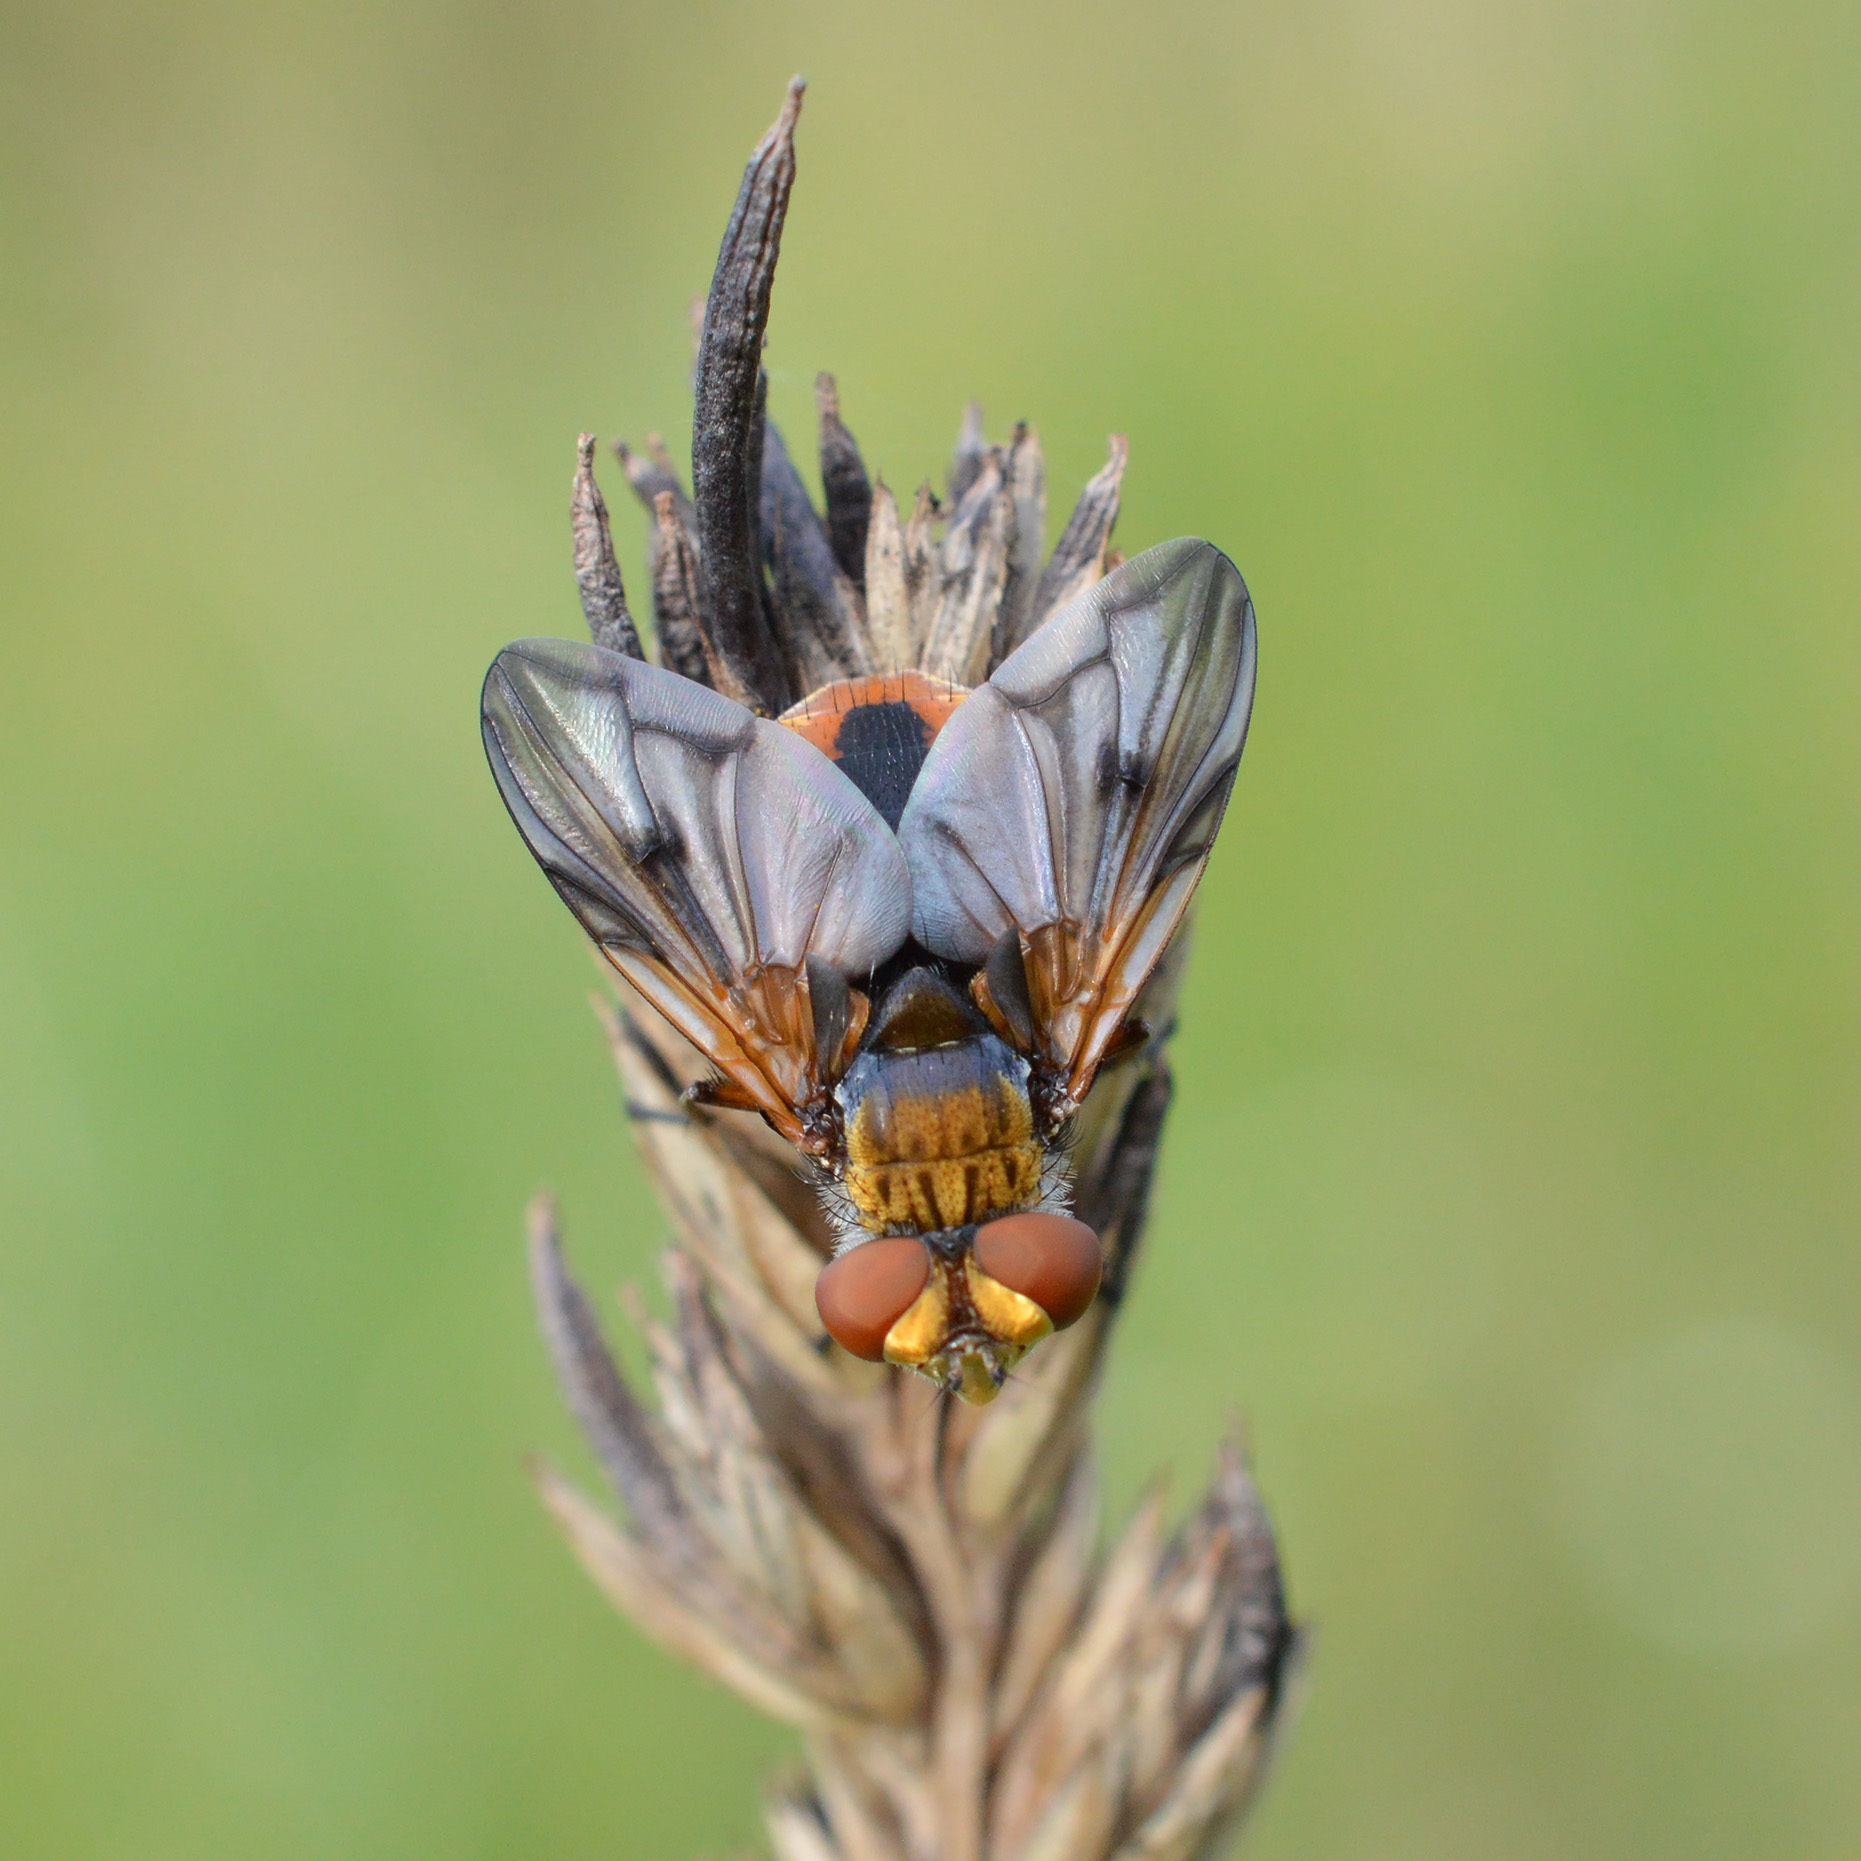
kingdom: Animalia
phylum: Arthropoda
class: Insecta
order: Diptera
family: Tachinidae
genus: Ectophasia
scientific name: Ectophasia crassipennis
